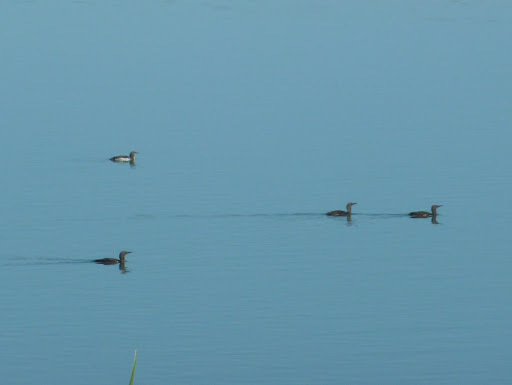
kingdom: Animalia
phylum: Chordata
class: Aves
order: Gaviiformes
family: Gaviidae
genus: Gavia
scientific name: Gavia stellata
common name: Red-throated loon
